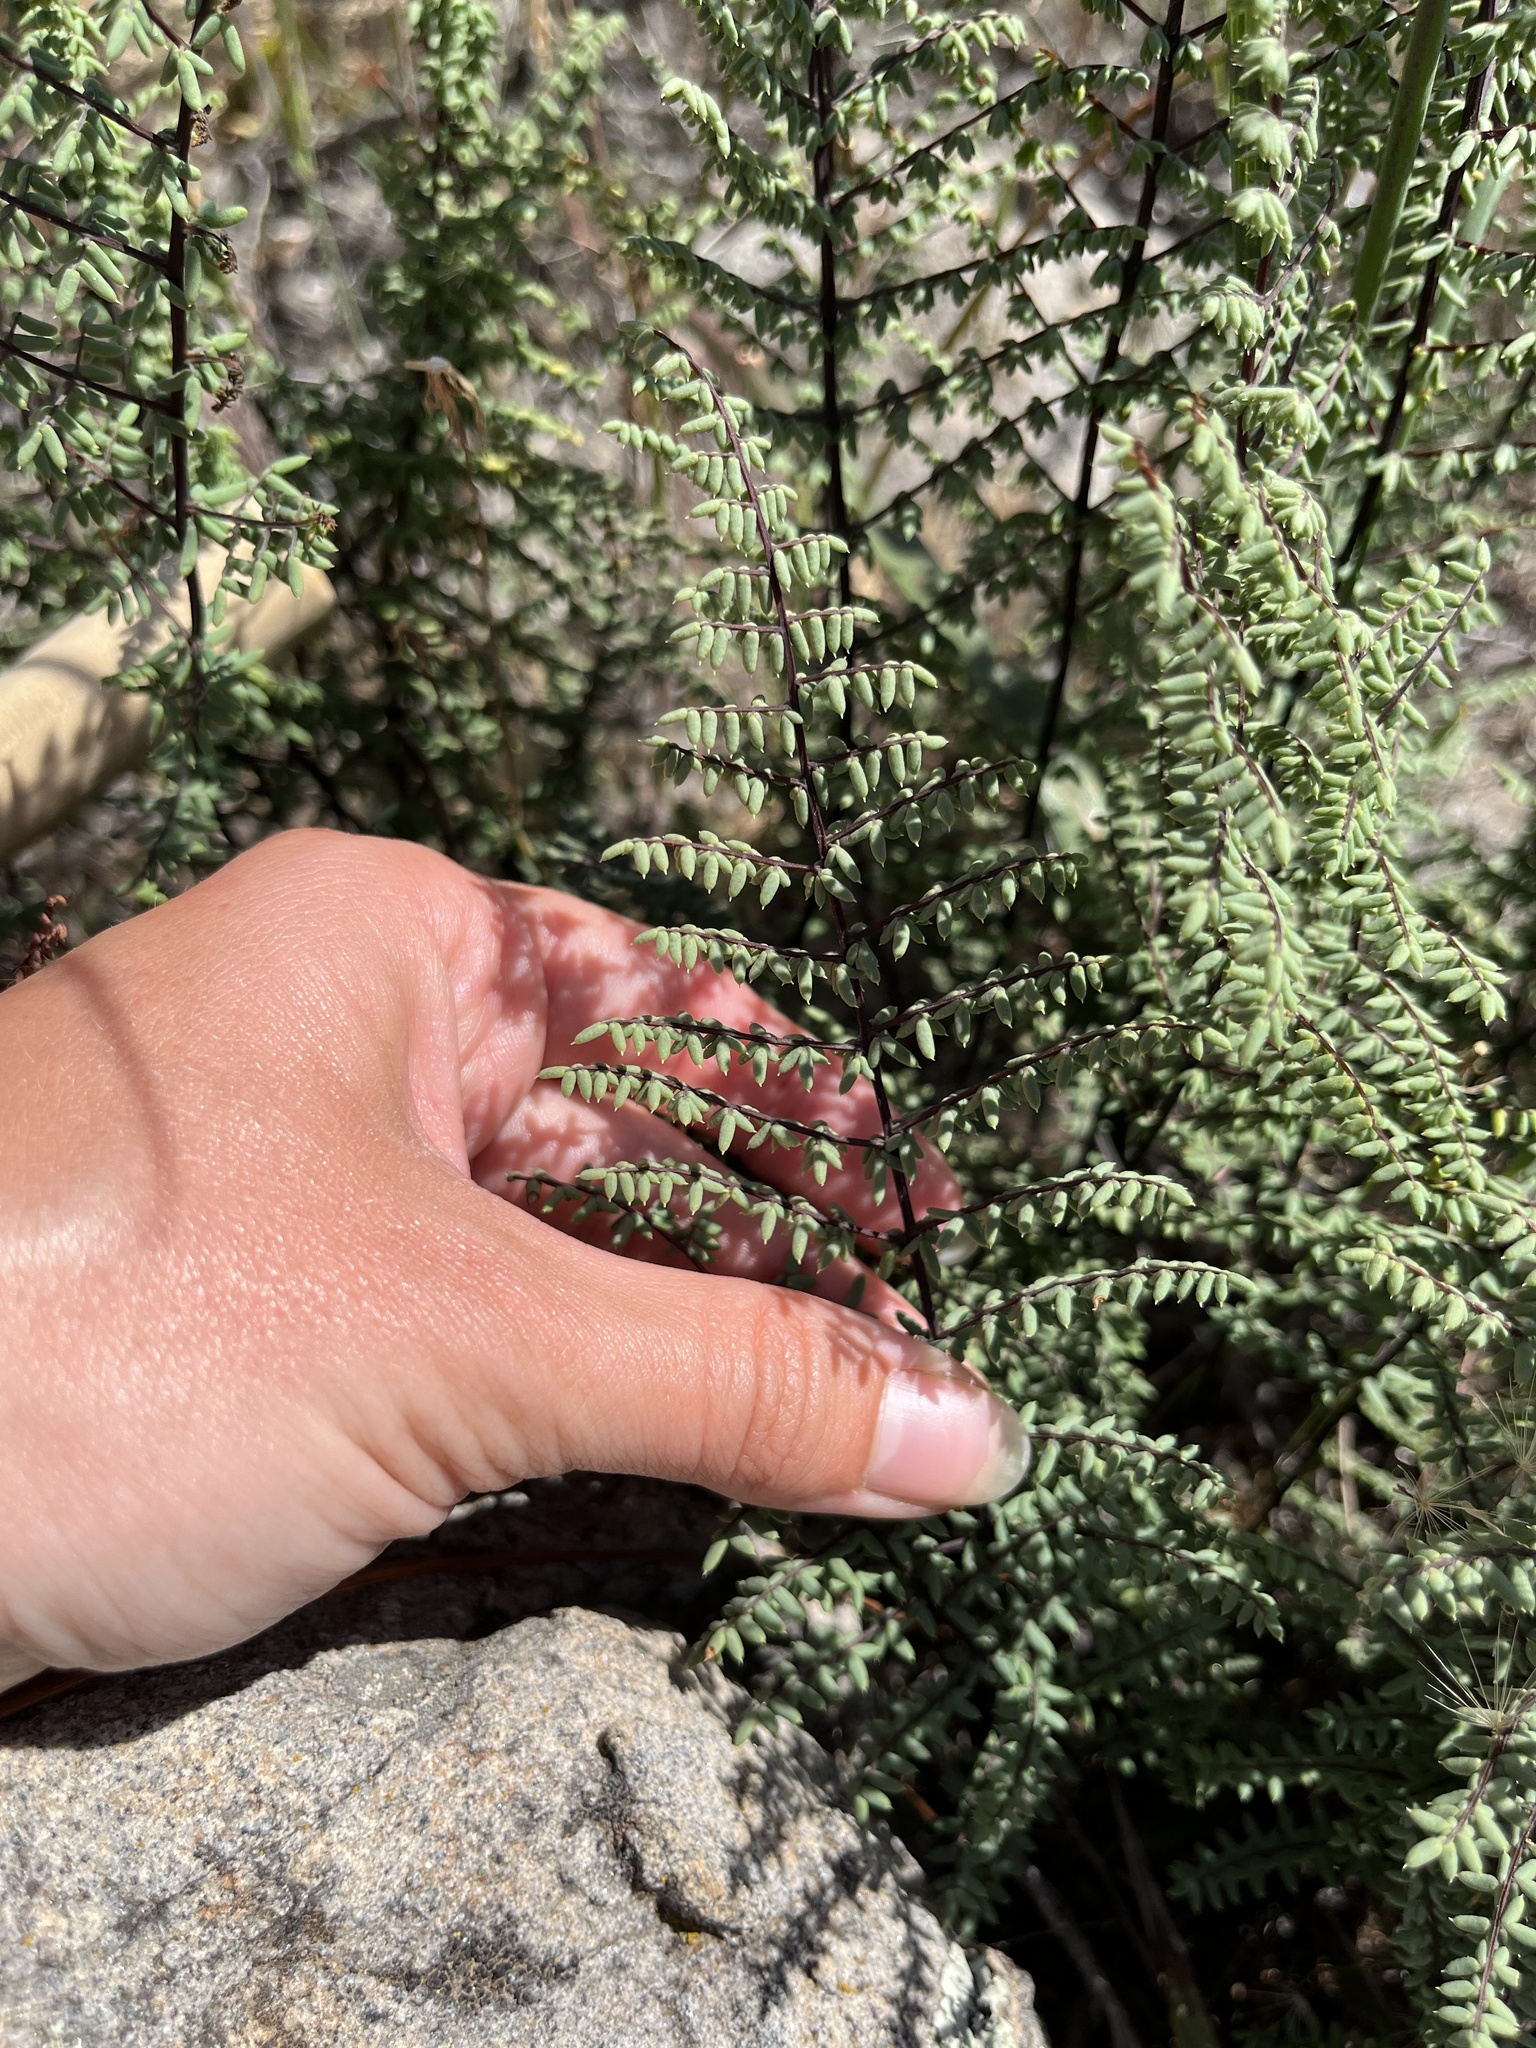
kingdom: Plantae
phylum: Tracheophyta
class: Polypodiopsida
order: Polypodiales
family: Pteridaceae
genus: Pellaea
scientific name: Pellaea mucronata
